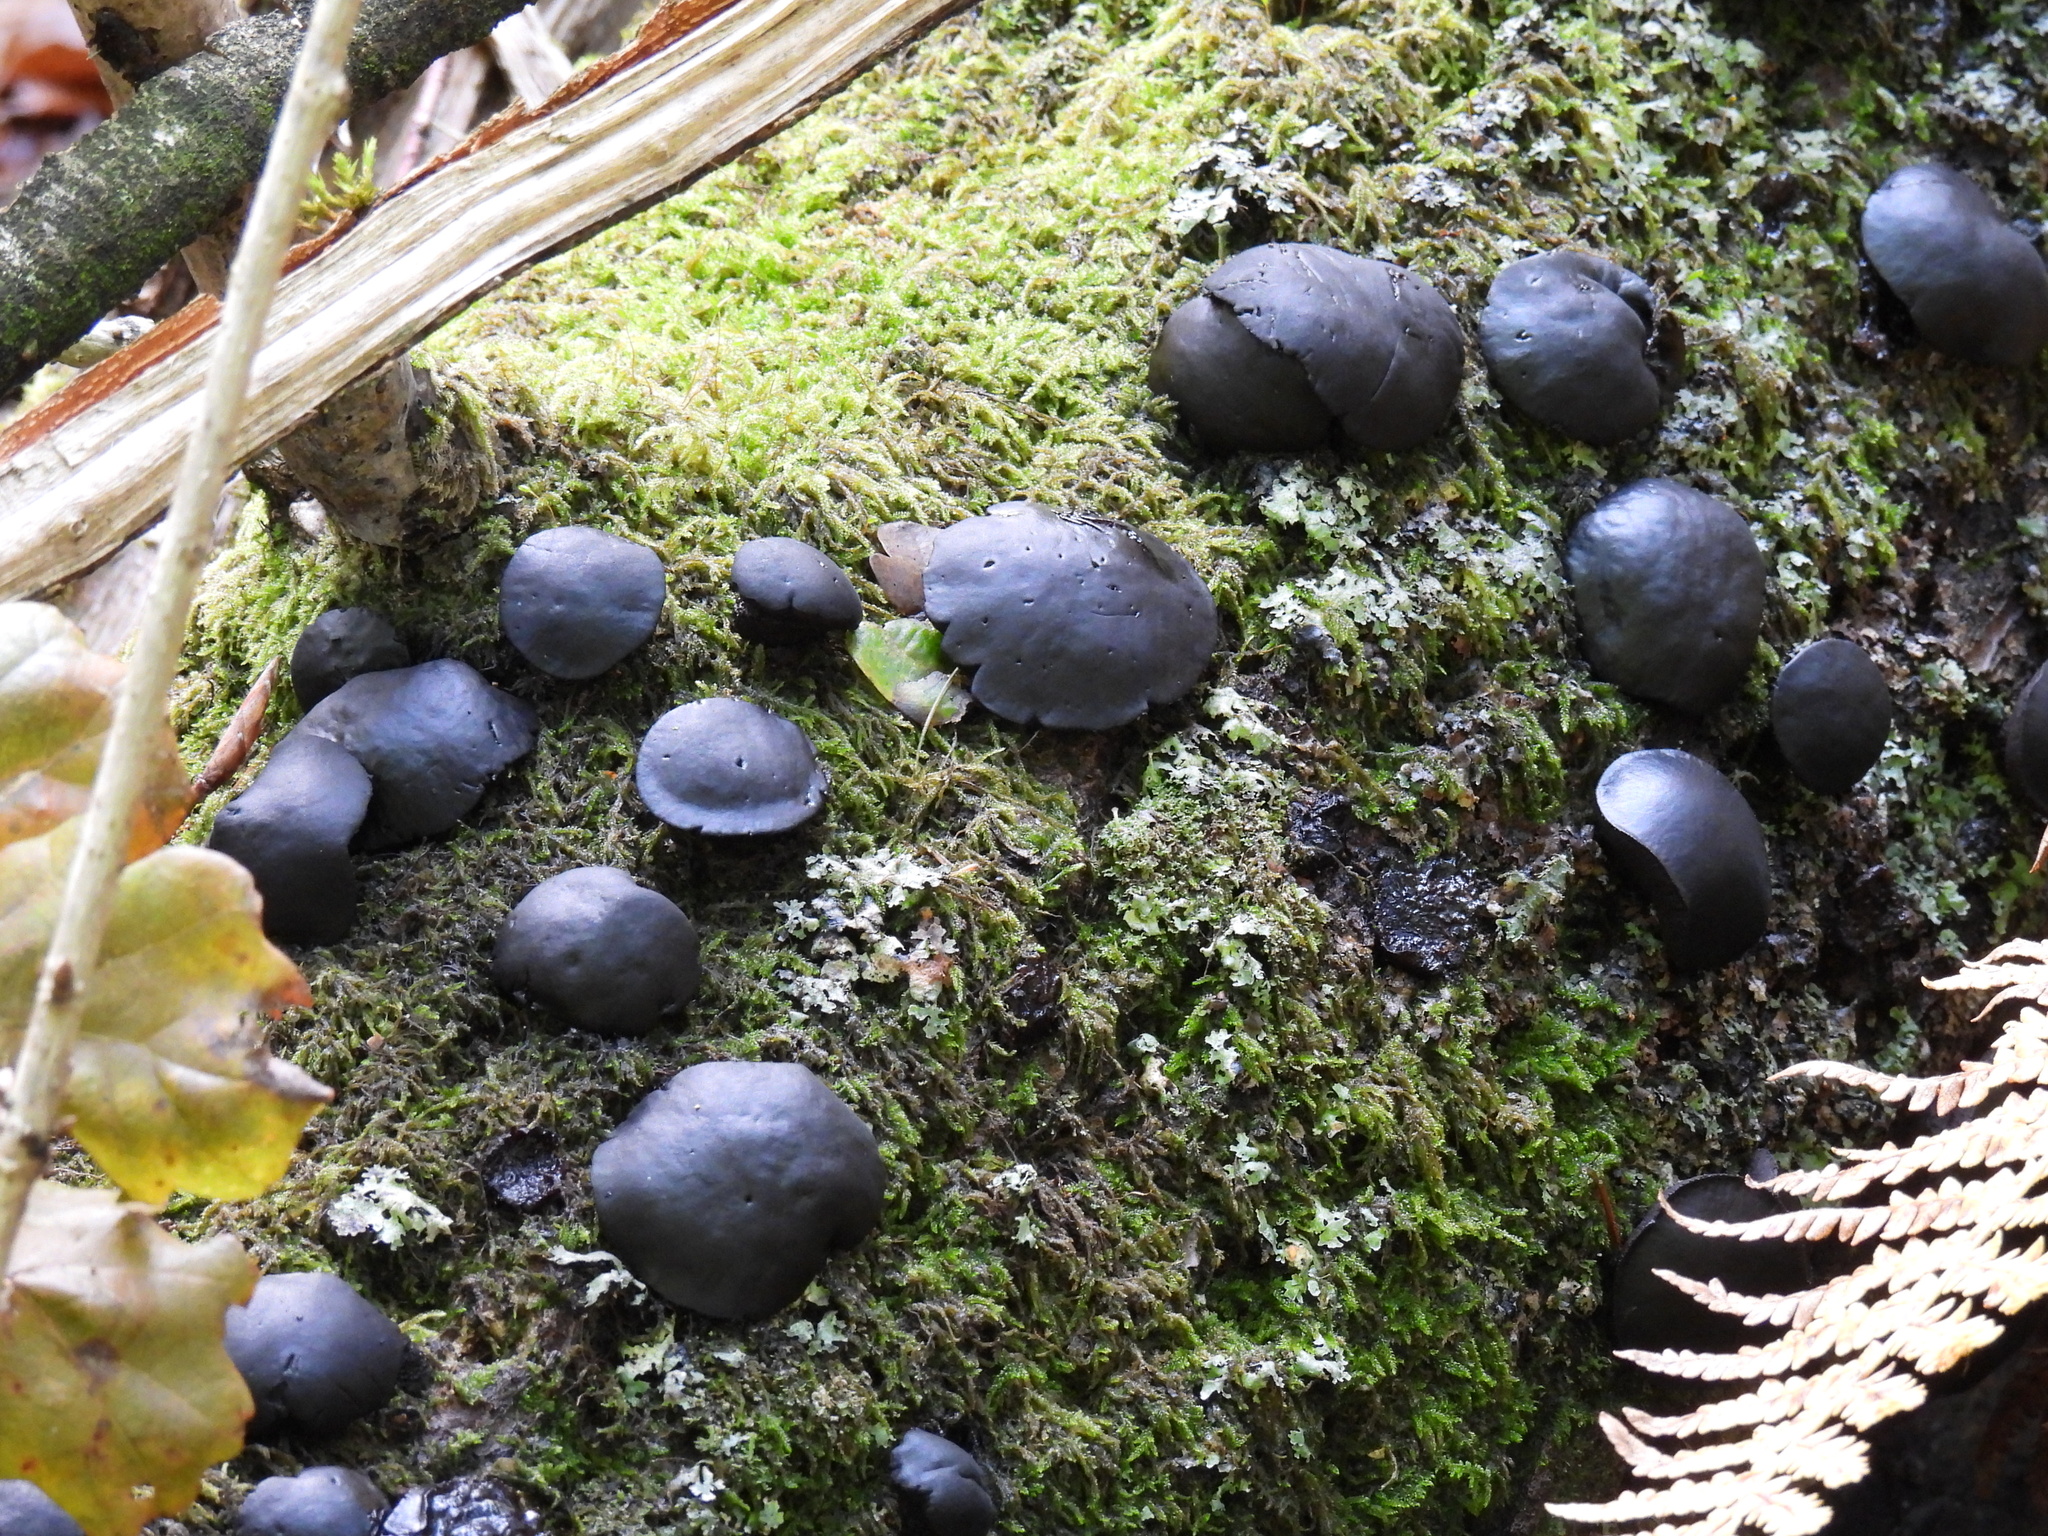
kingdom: Fungi
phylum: Ascomycota
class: Leotiomycetes
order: Phacidiales
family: Phacidiaceae
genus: Bulgaria
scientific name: Bulgaria inquinans
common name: Black bulgar
